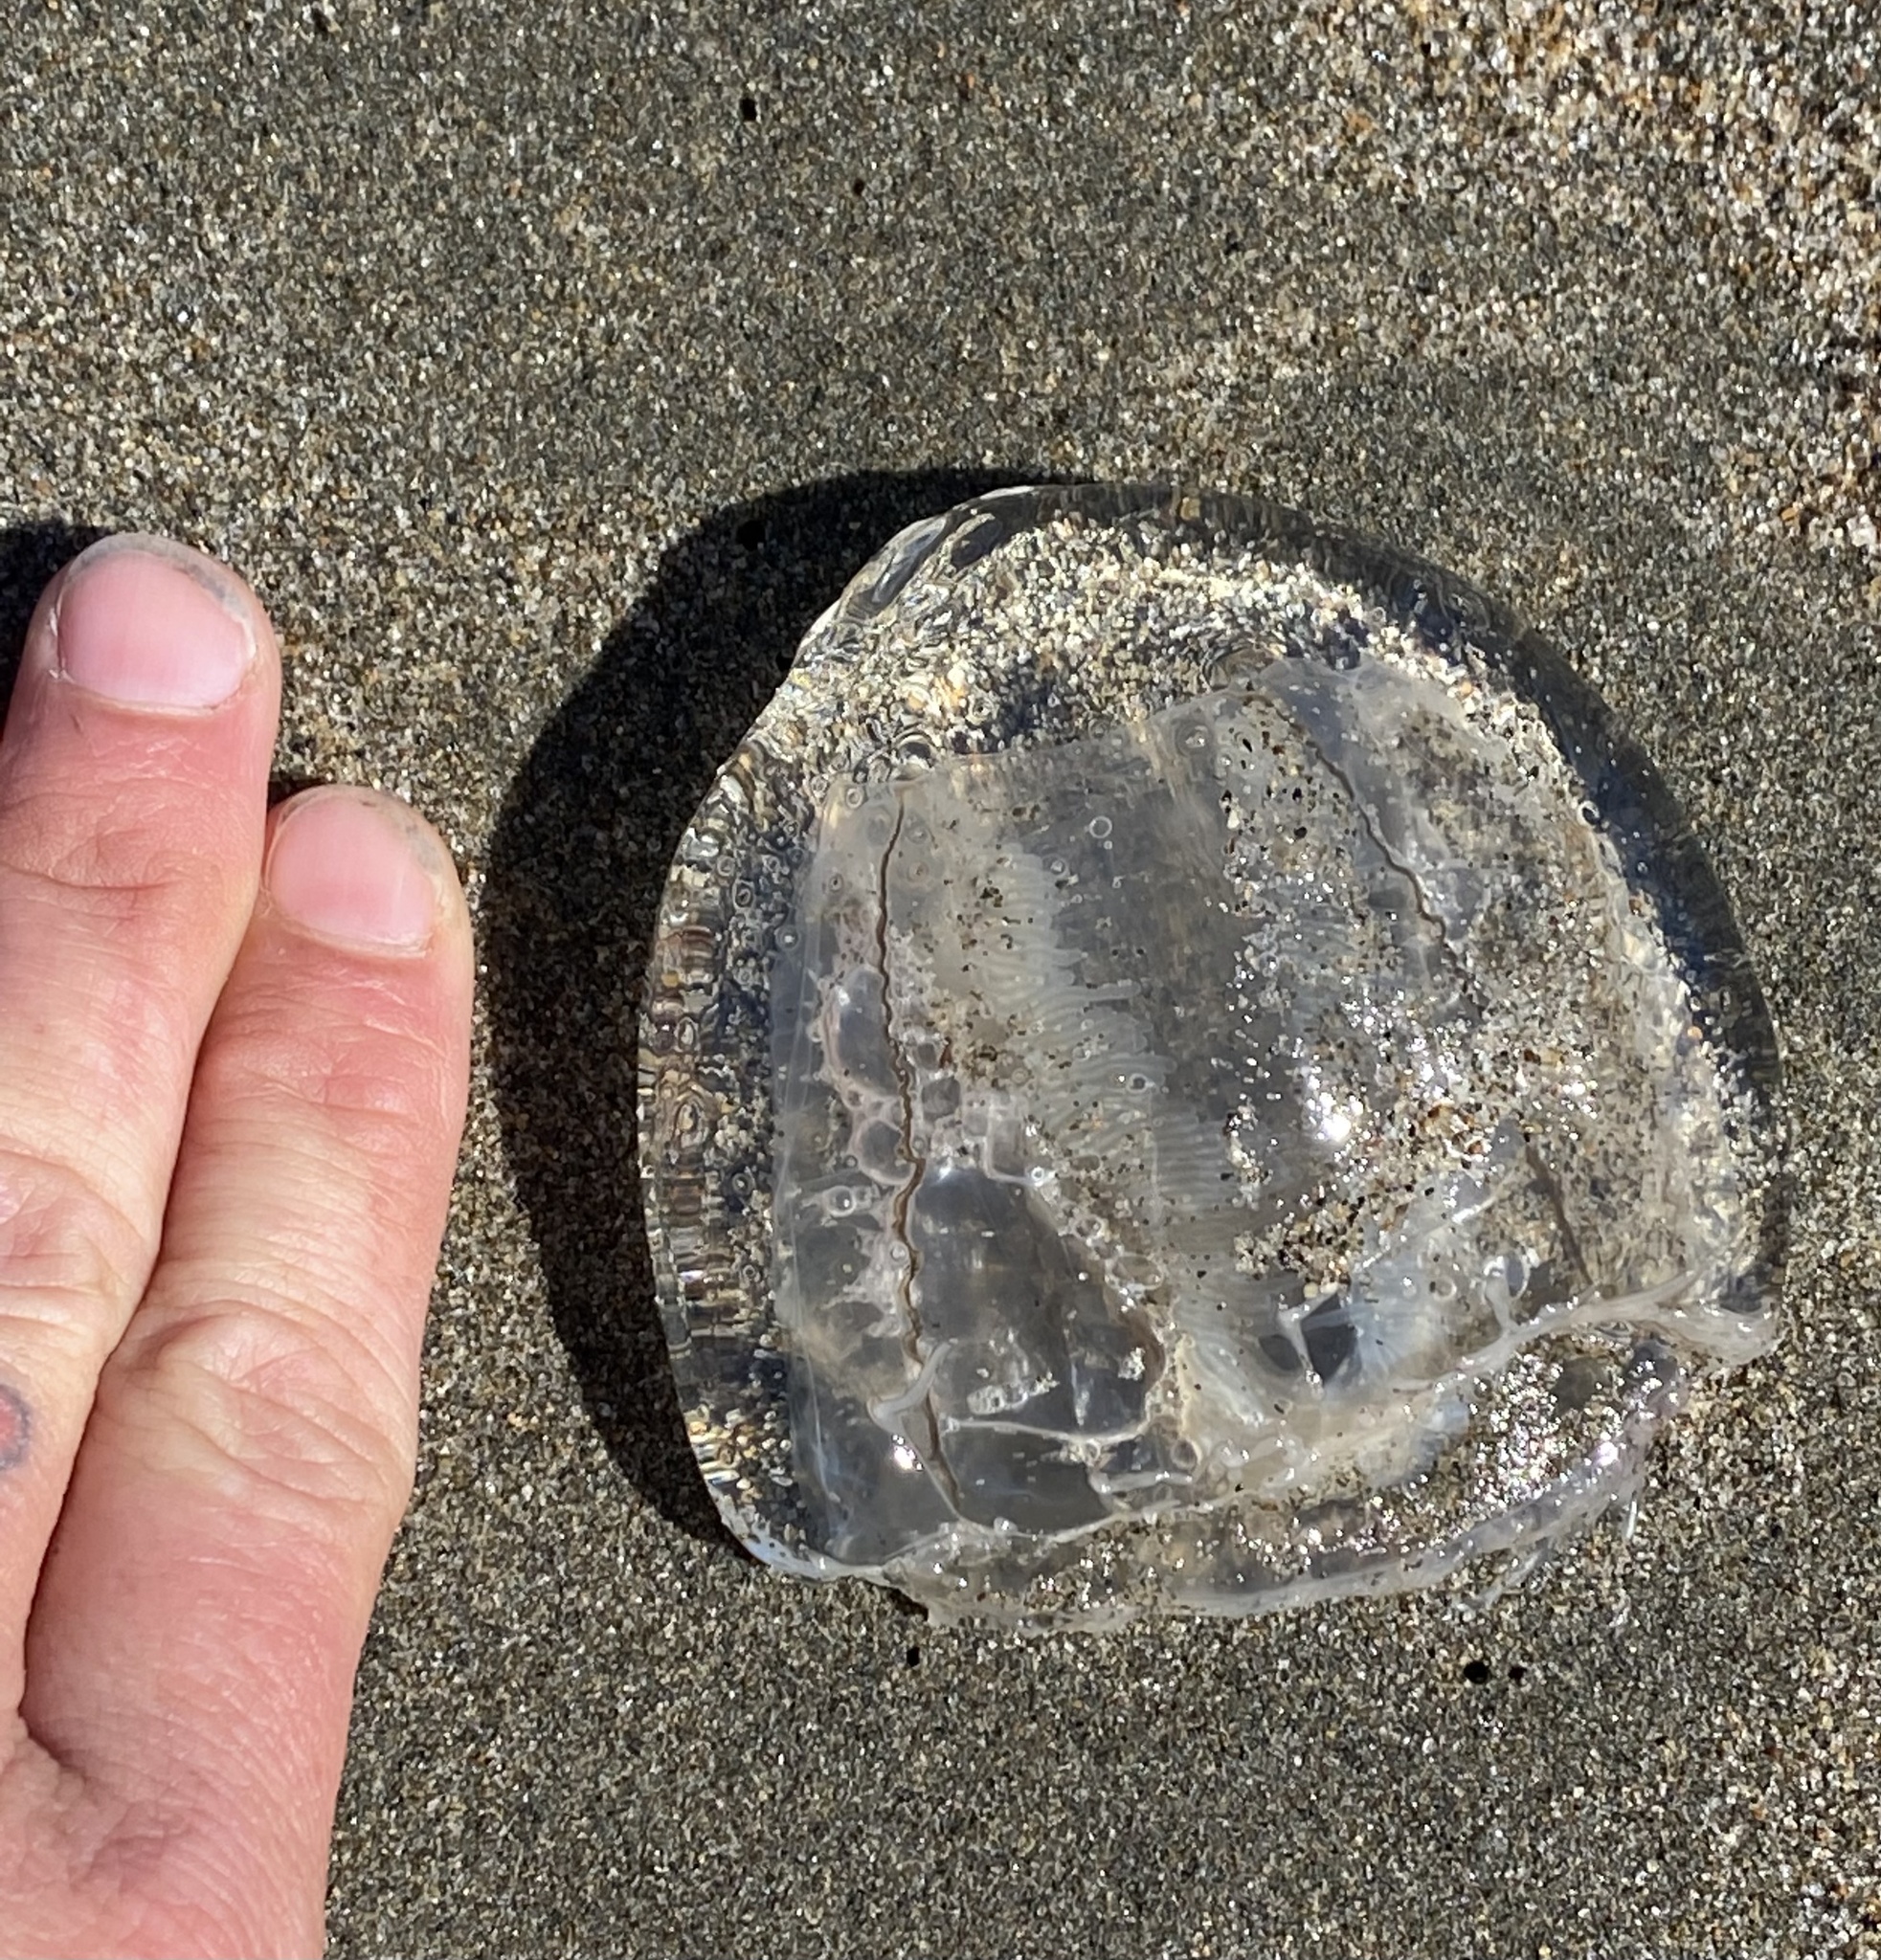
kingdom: Animalia
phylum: Cnidaria
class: Hydrozoa
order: Anthoathecata
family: Corynidae
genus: Scrippsia
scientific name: Scrippsia pacifica
